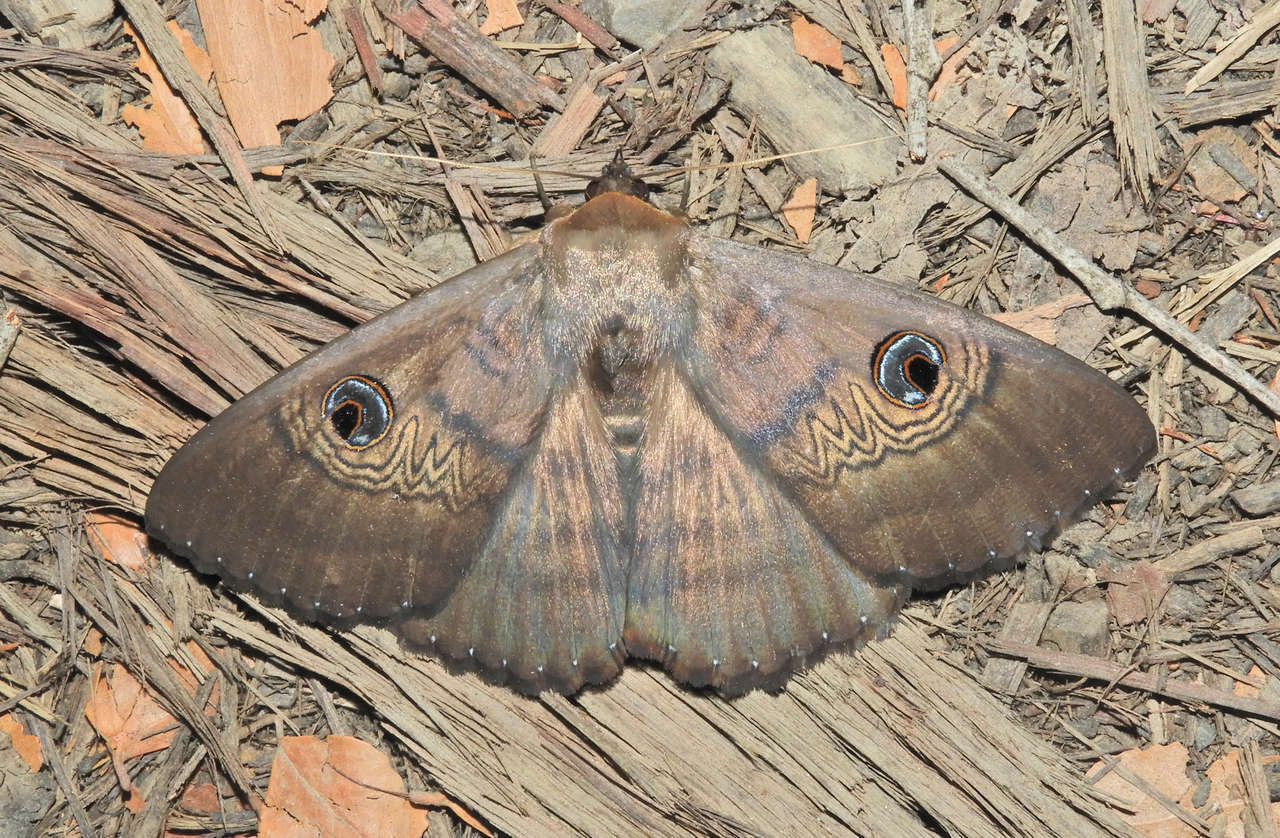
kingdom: Animalia
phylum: Arthropoda
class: Insecta
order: Lepidoptera
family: Erebidae
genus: Dasypodia
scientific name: Dasypodia selenophora
